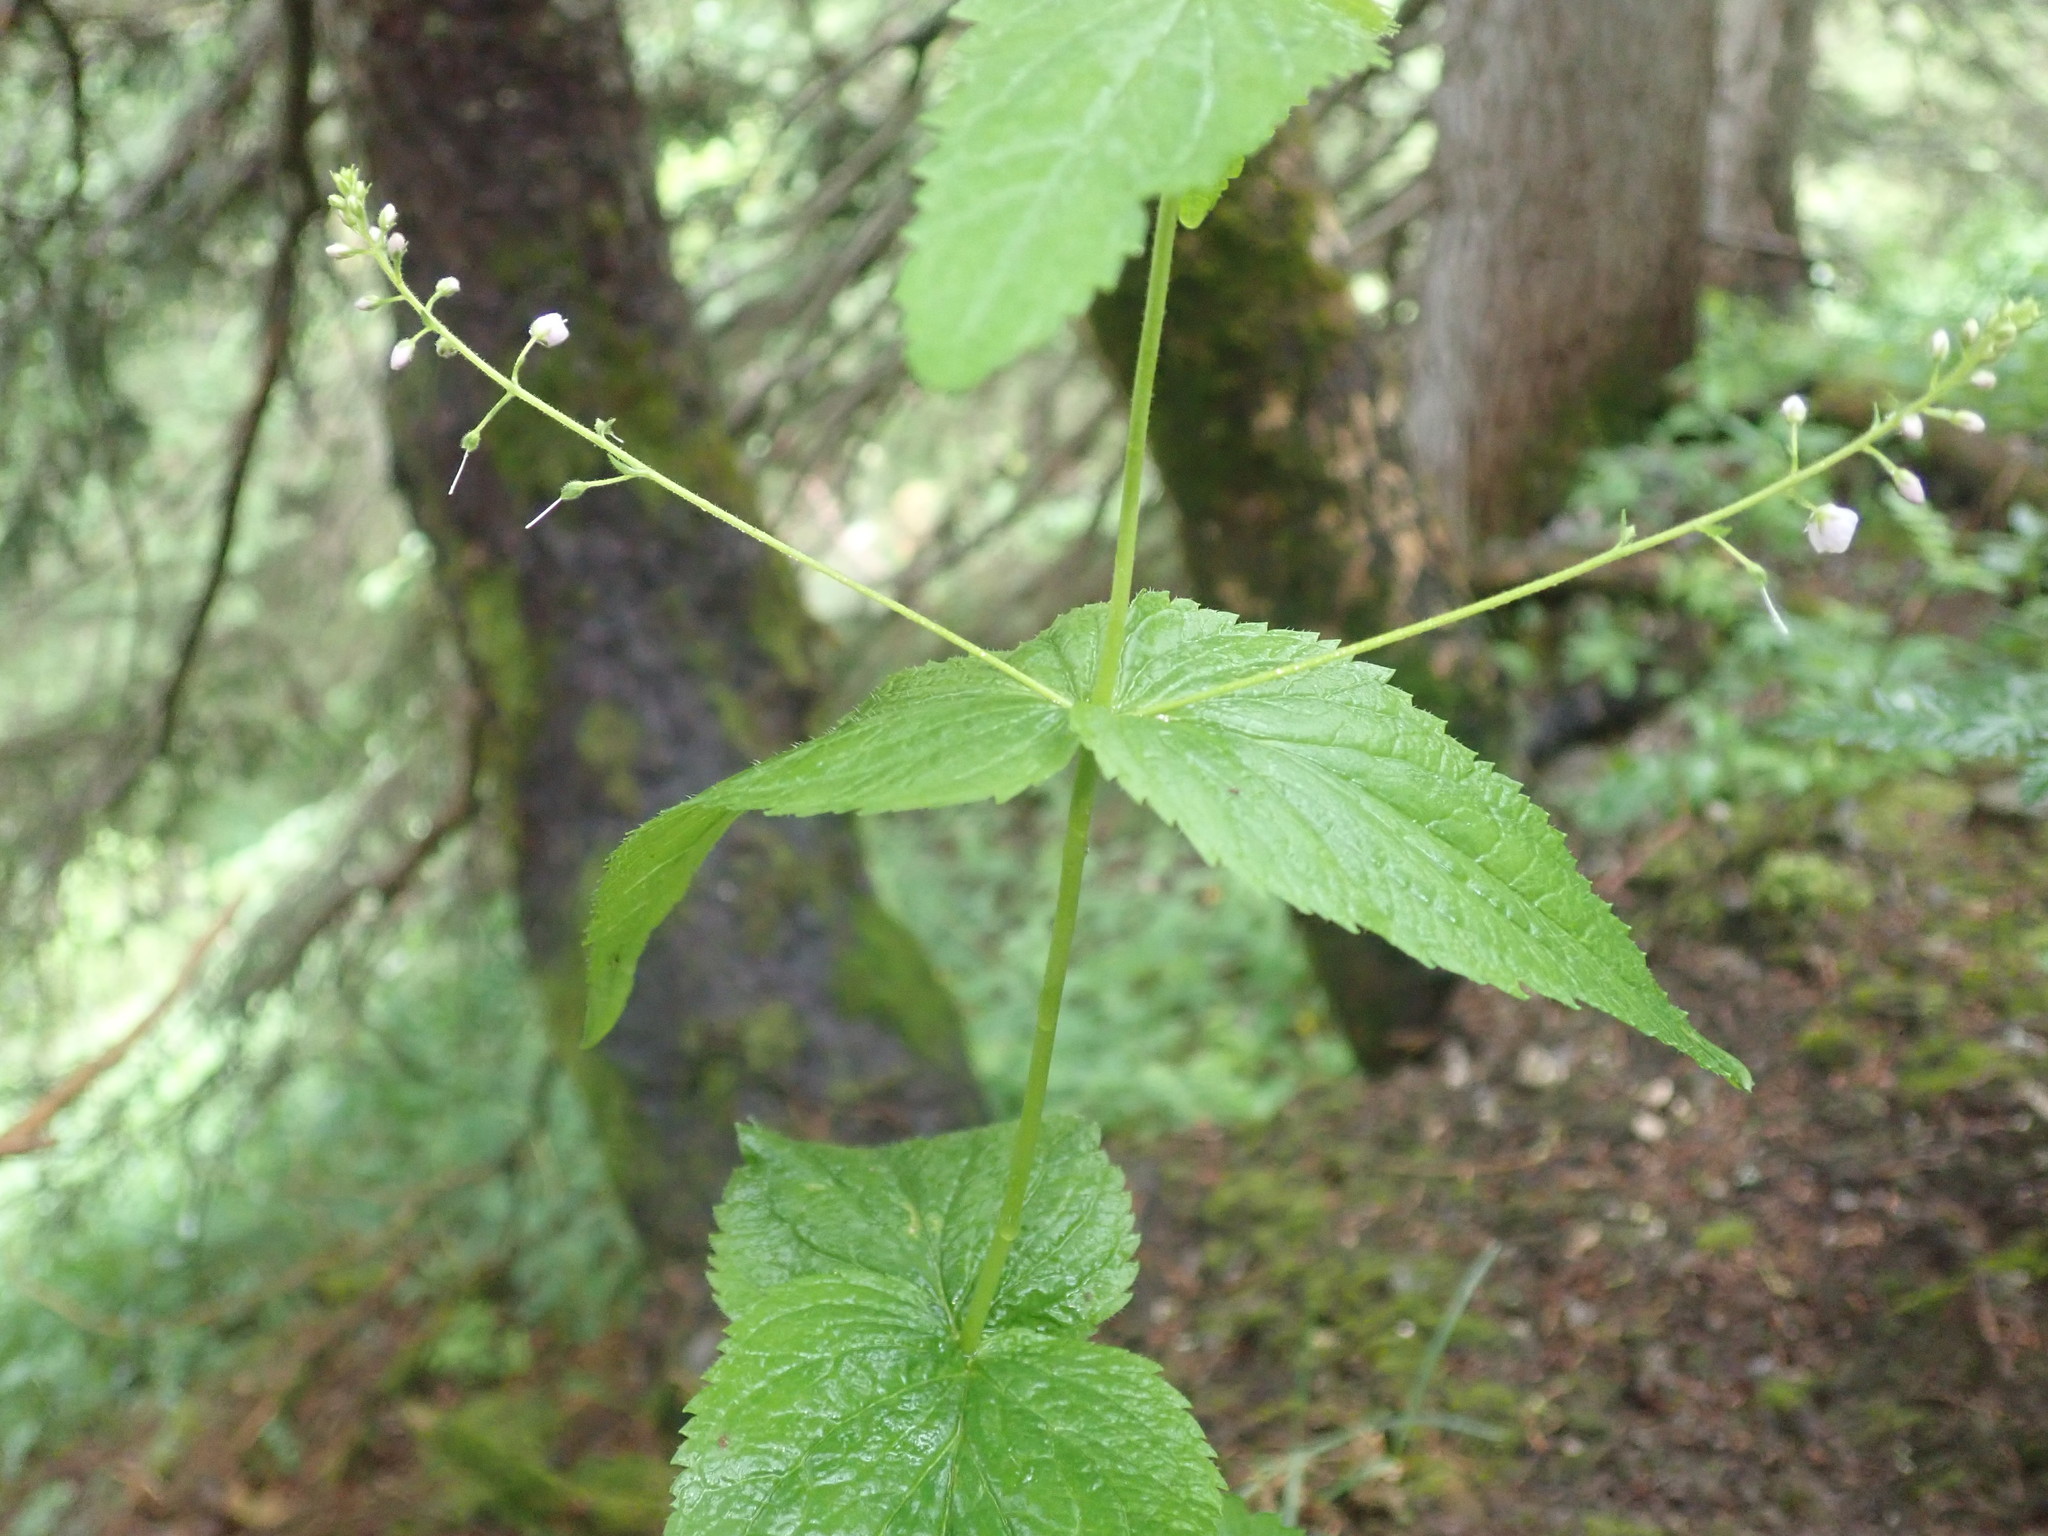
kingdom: Plantae
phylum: Tracheophyta
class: Magnoliopsida
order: Lamiales
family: Plantaginaceae
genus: Veronica
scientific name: Veronica urticifolia
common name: Nettle-leaf speedwell
